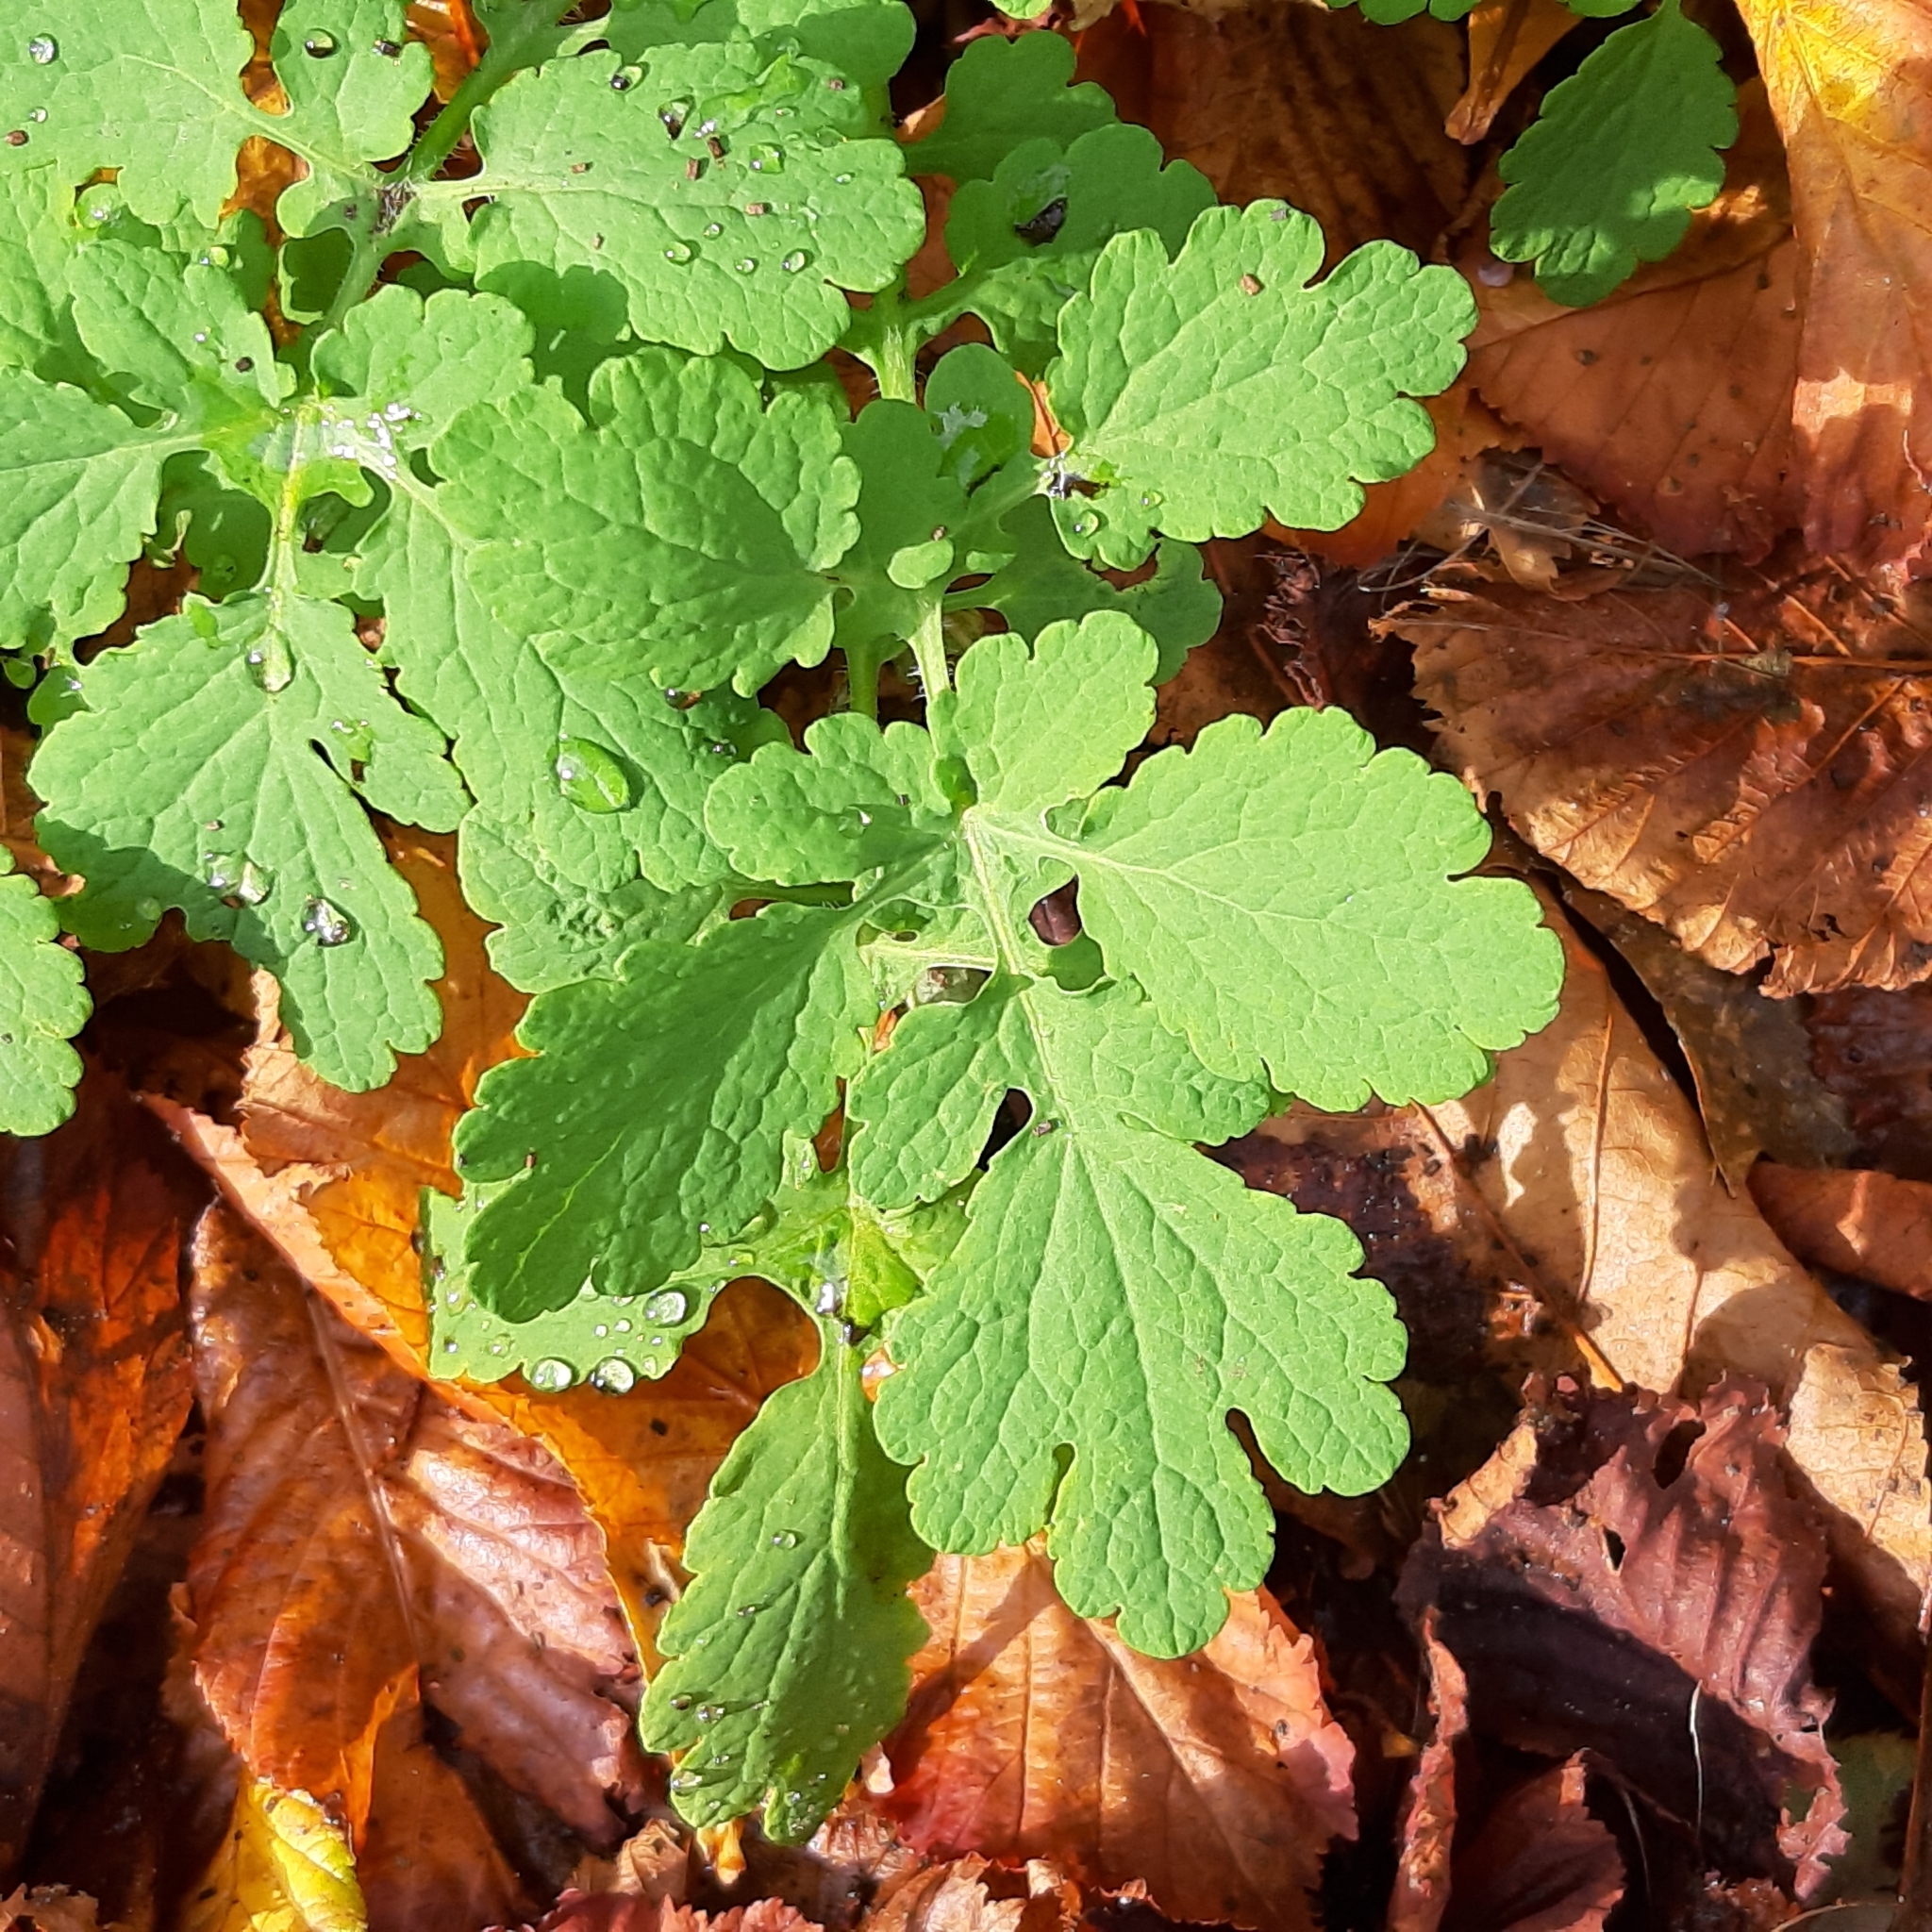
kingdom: Plantae
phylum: Tracheophyta
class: Magnoliopsida
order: Ranunculales
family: Papaveraceae
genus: Chelidonium
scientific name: Chelidonium majus
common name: Greater celandine
